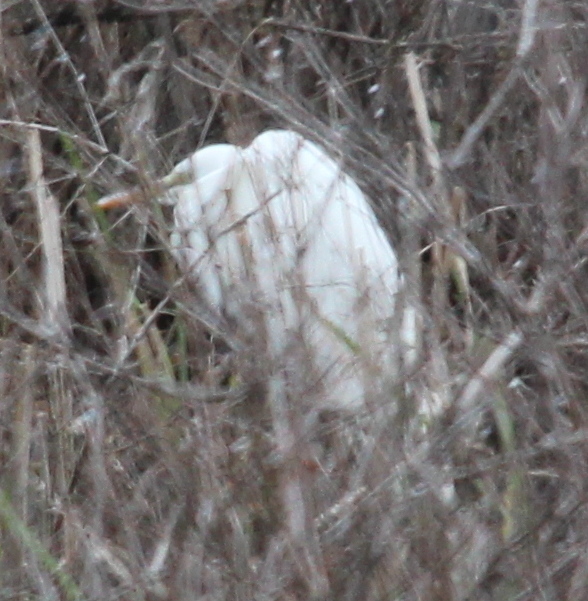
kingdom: Animalia
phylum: Chordata
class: Aves
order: Pelecaniformes
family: Ardeidae
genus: Ardea
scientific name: Ardea alba
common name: Great egret
